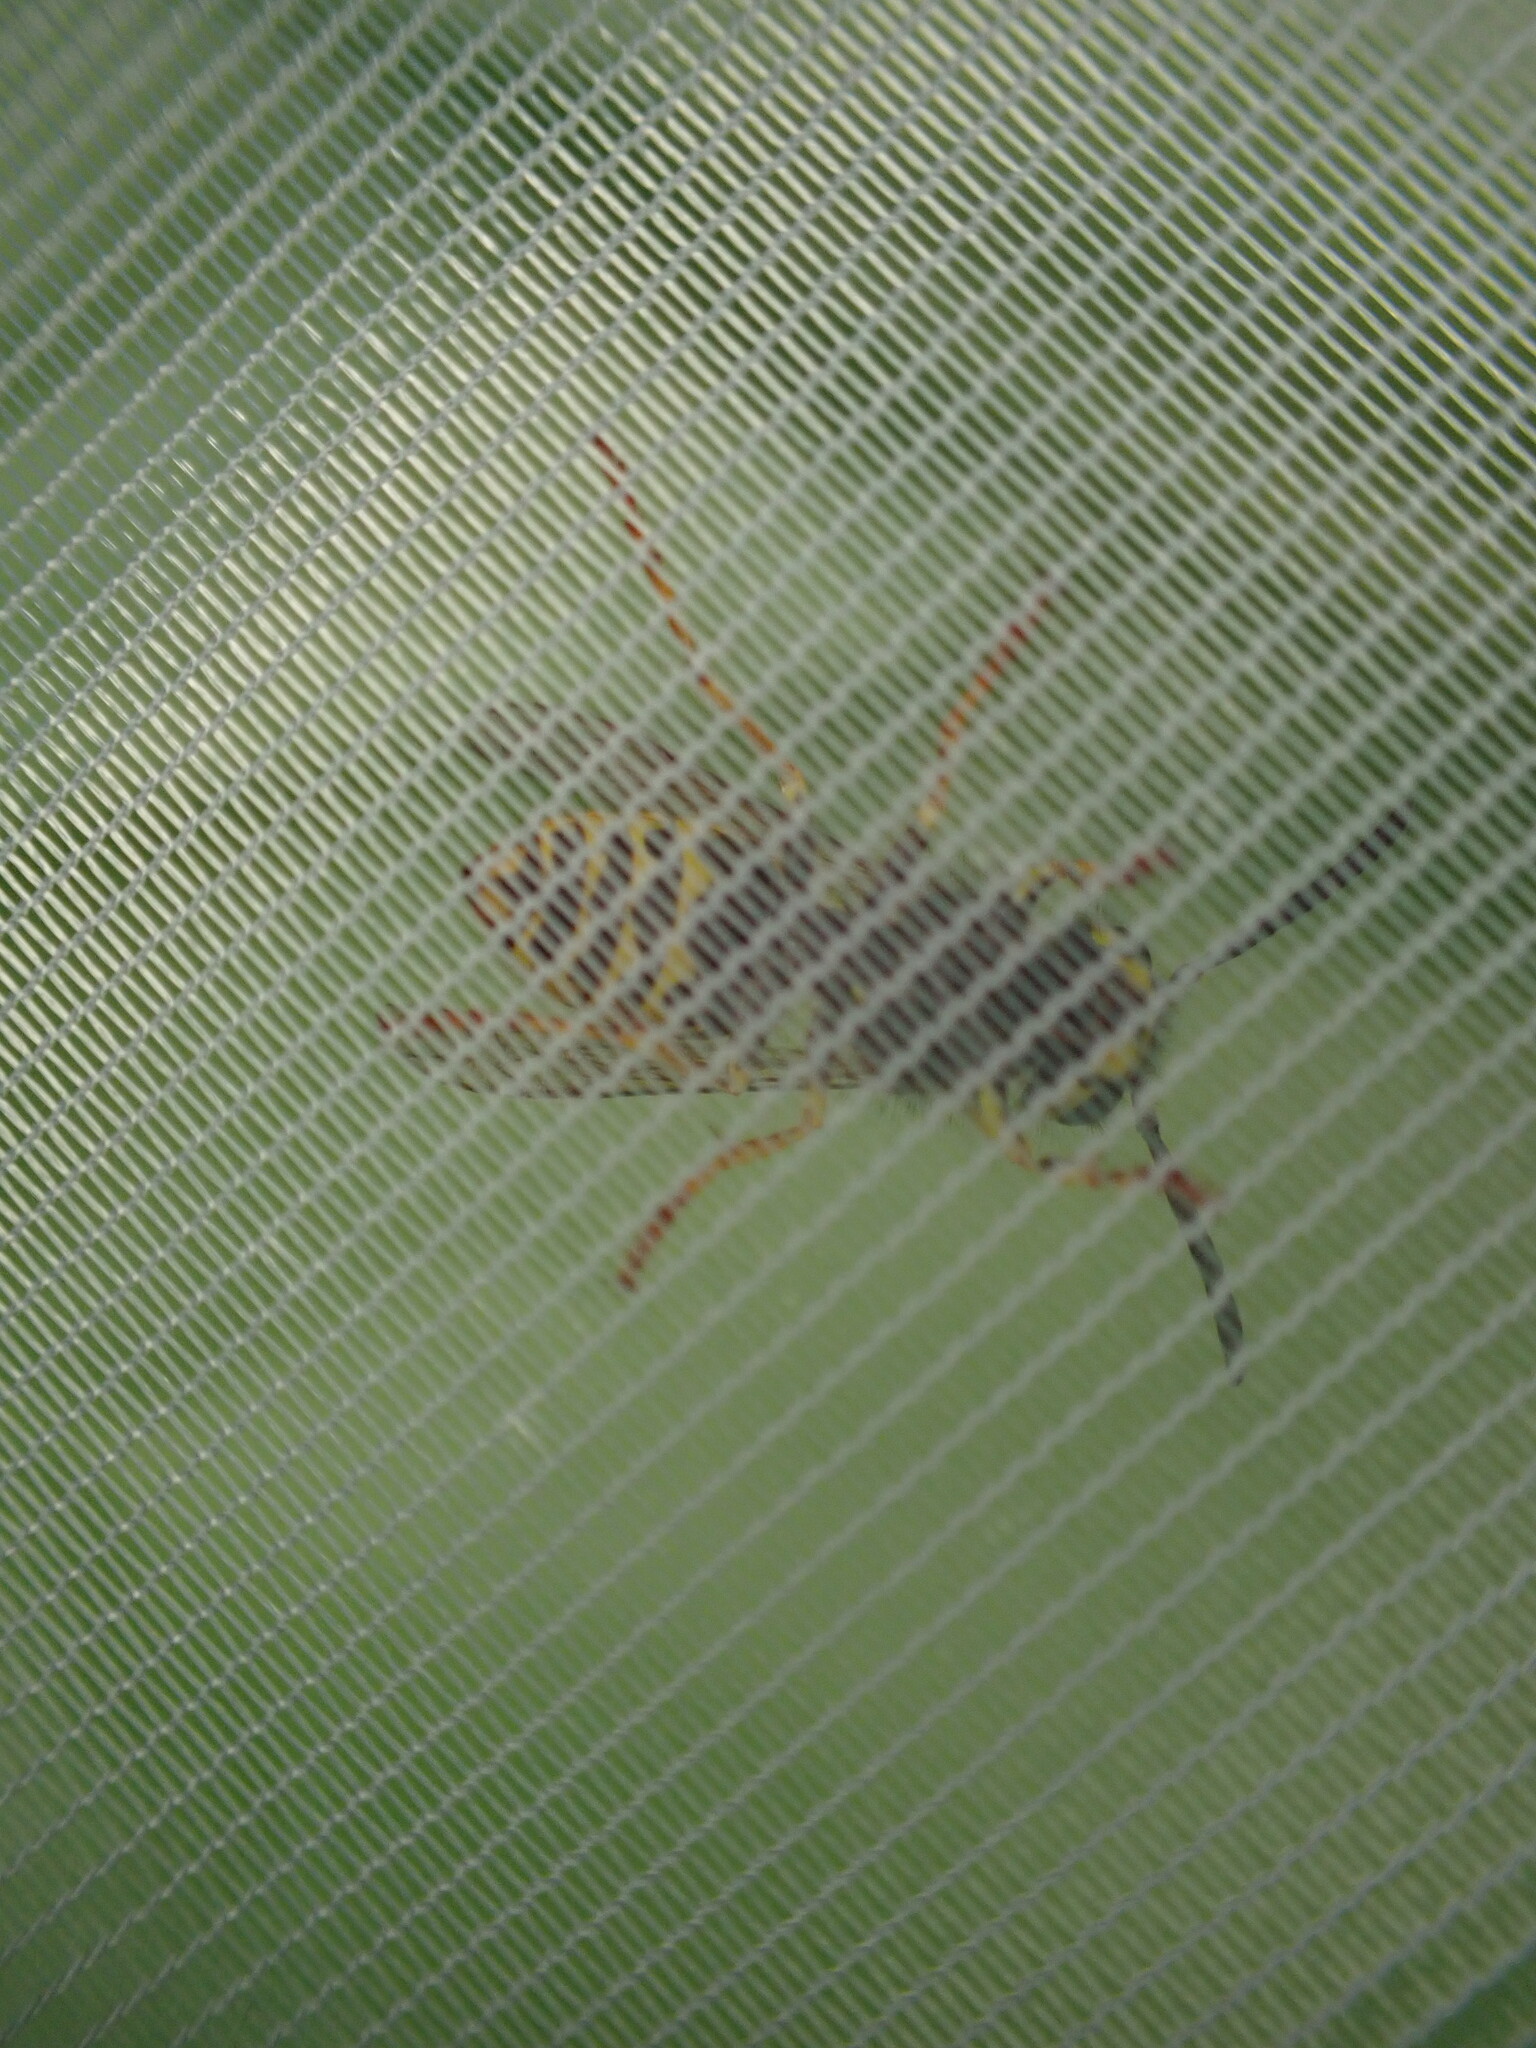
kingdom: Animalia
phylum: Arthropoda
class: Insecta
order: Hymenoptera
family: Vespidae
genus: Vespula
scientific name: Vespula pensylvanica
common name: Western yellowjacket
